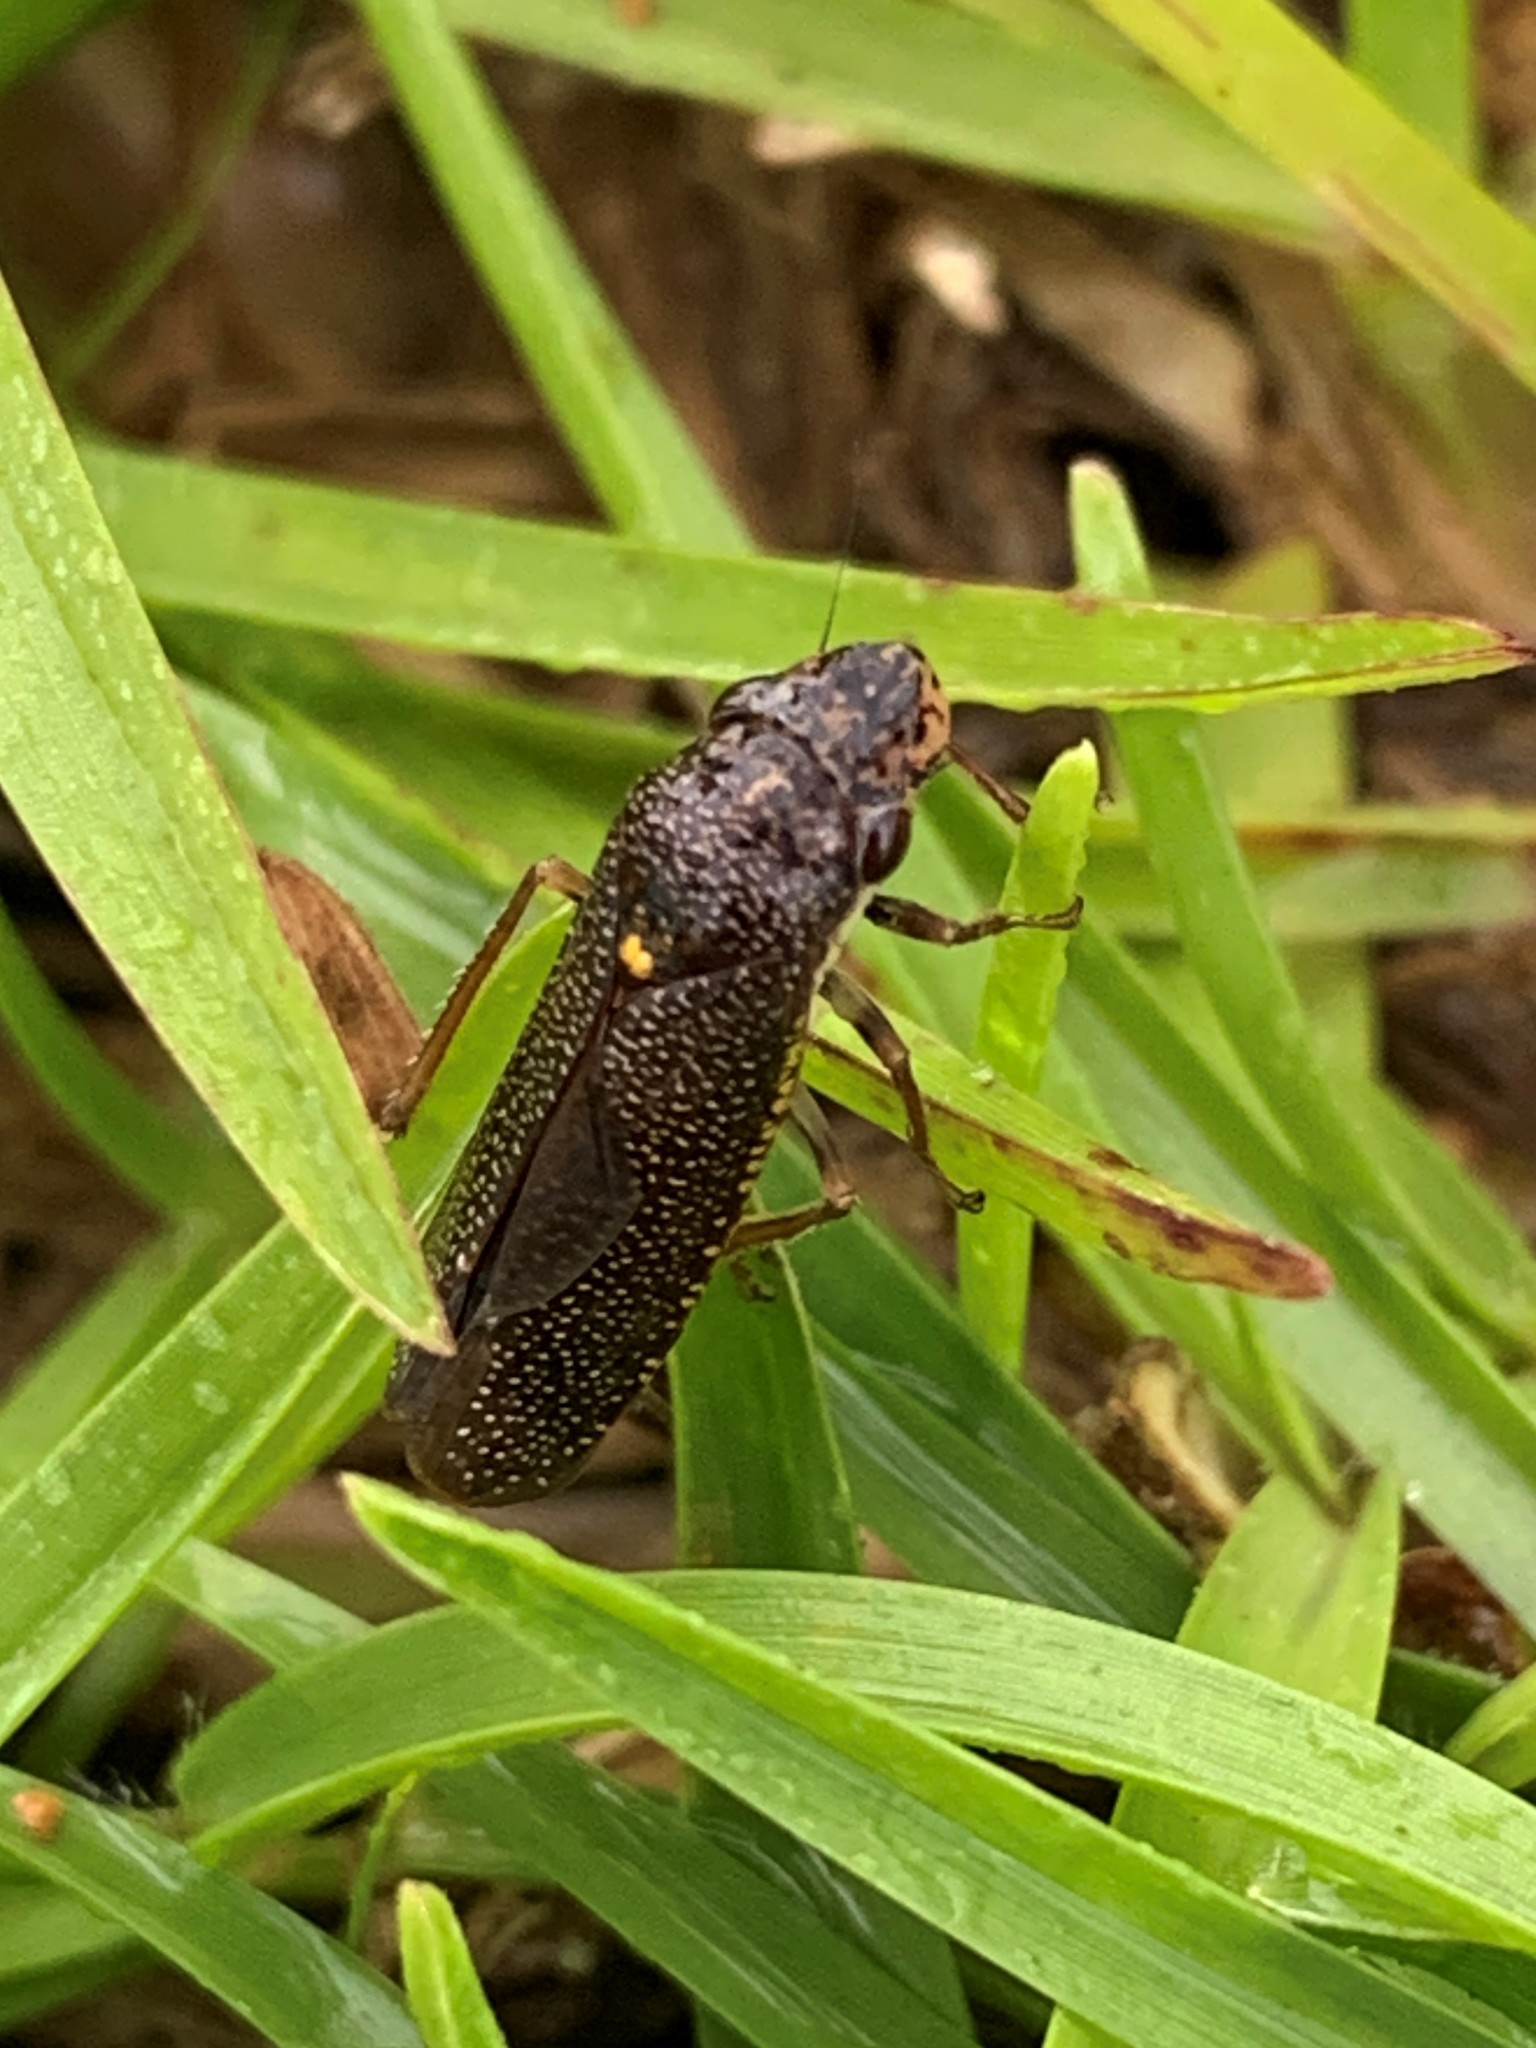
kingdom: Animalia
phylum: Arthropoda
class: Insecta
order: Hemiptera
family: Cicadellidae
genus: Paraulacizes
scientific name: Paraulacizes irrorata
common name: Speckled sharpshooter
